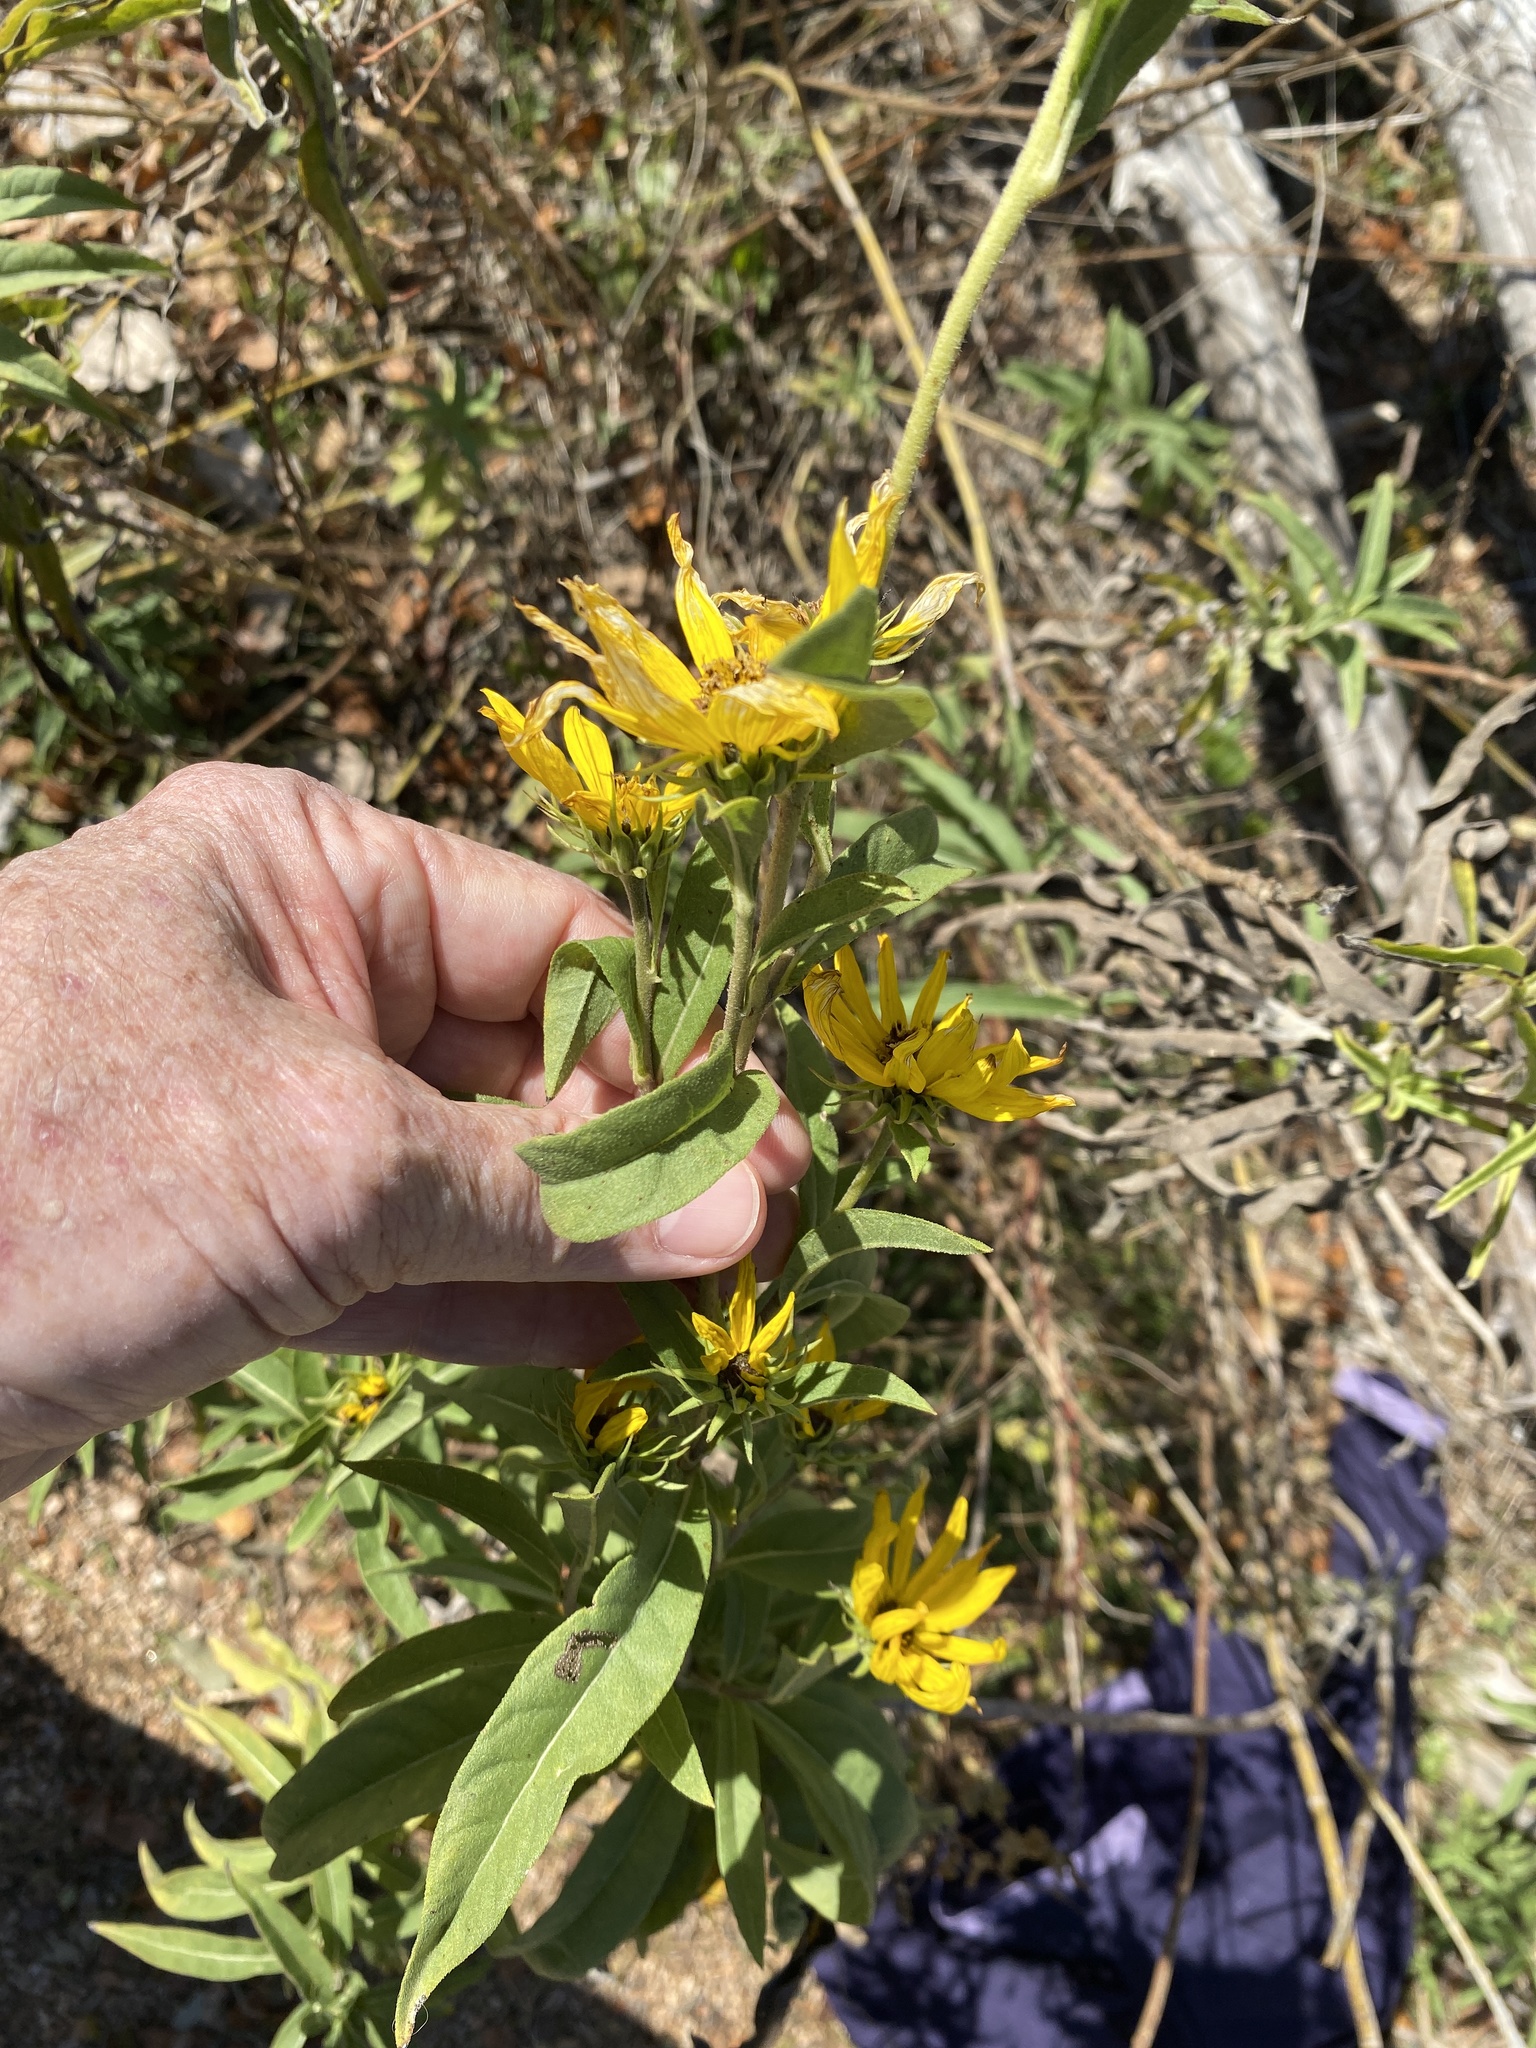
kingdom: Plantae
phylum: Tracheophyta
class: Magnoliopsida
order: Asterales
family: Asteraceae
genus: Helianthus
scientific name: Helianthus maximiliani
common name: Maximilian's sunflower
